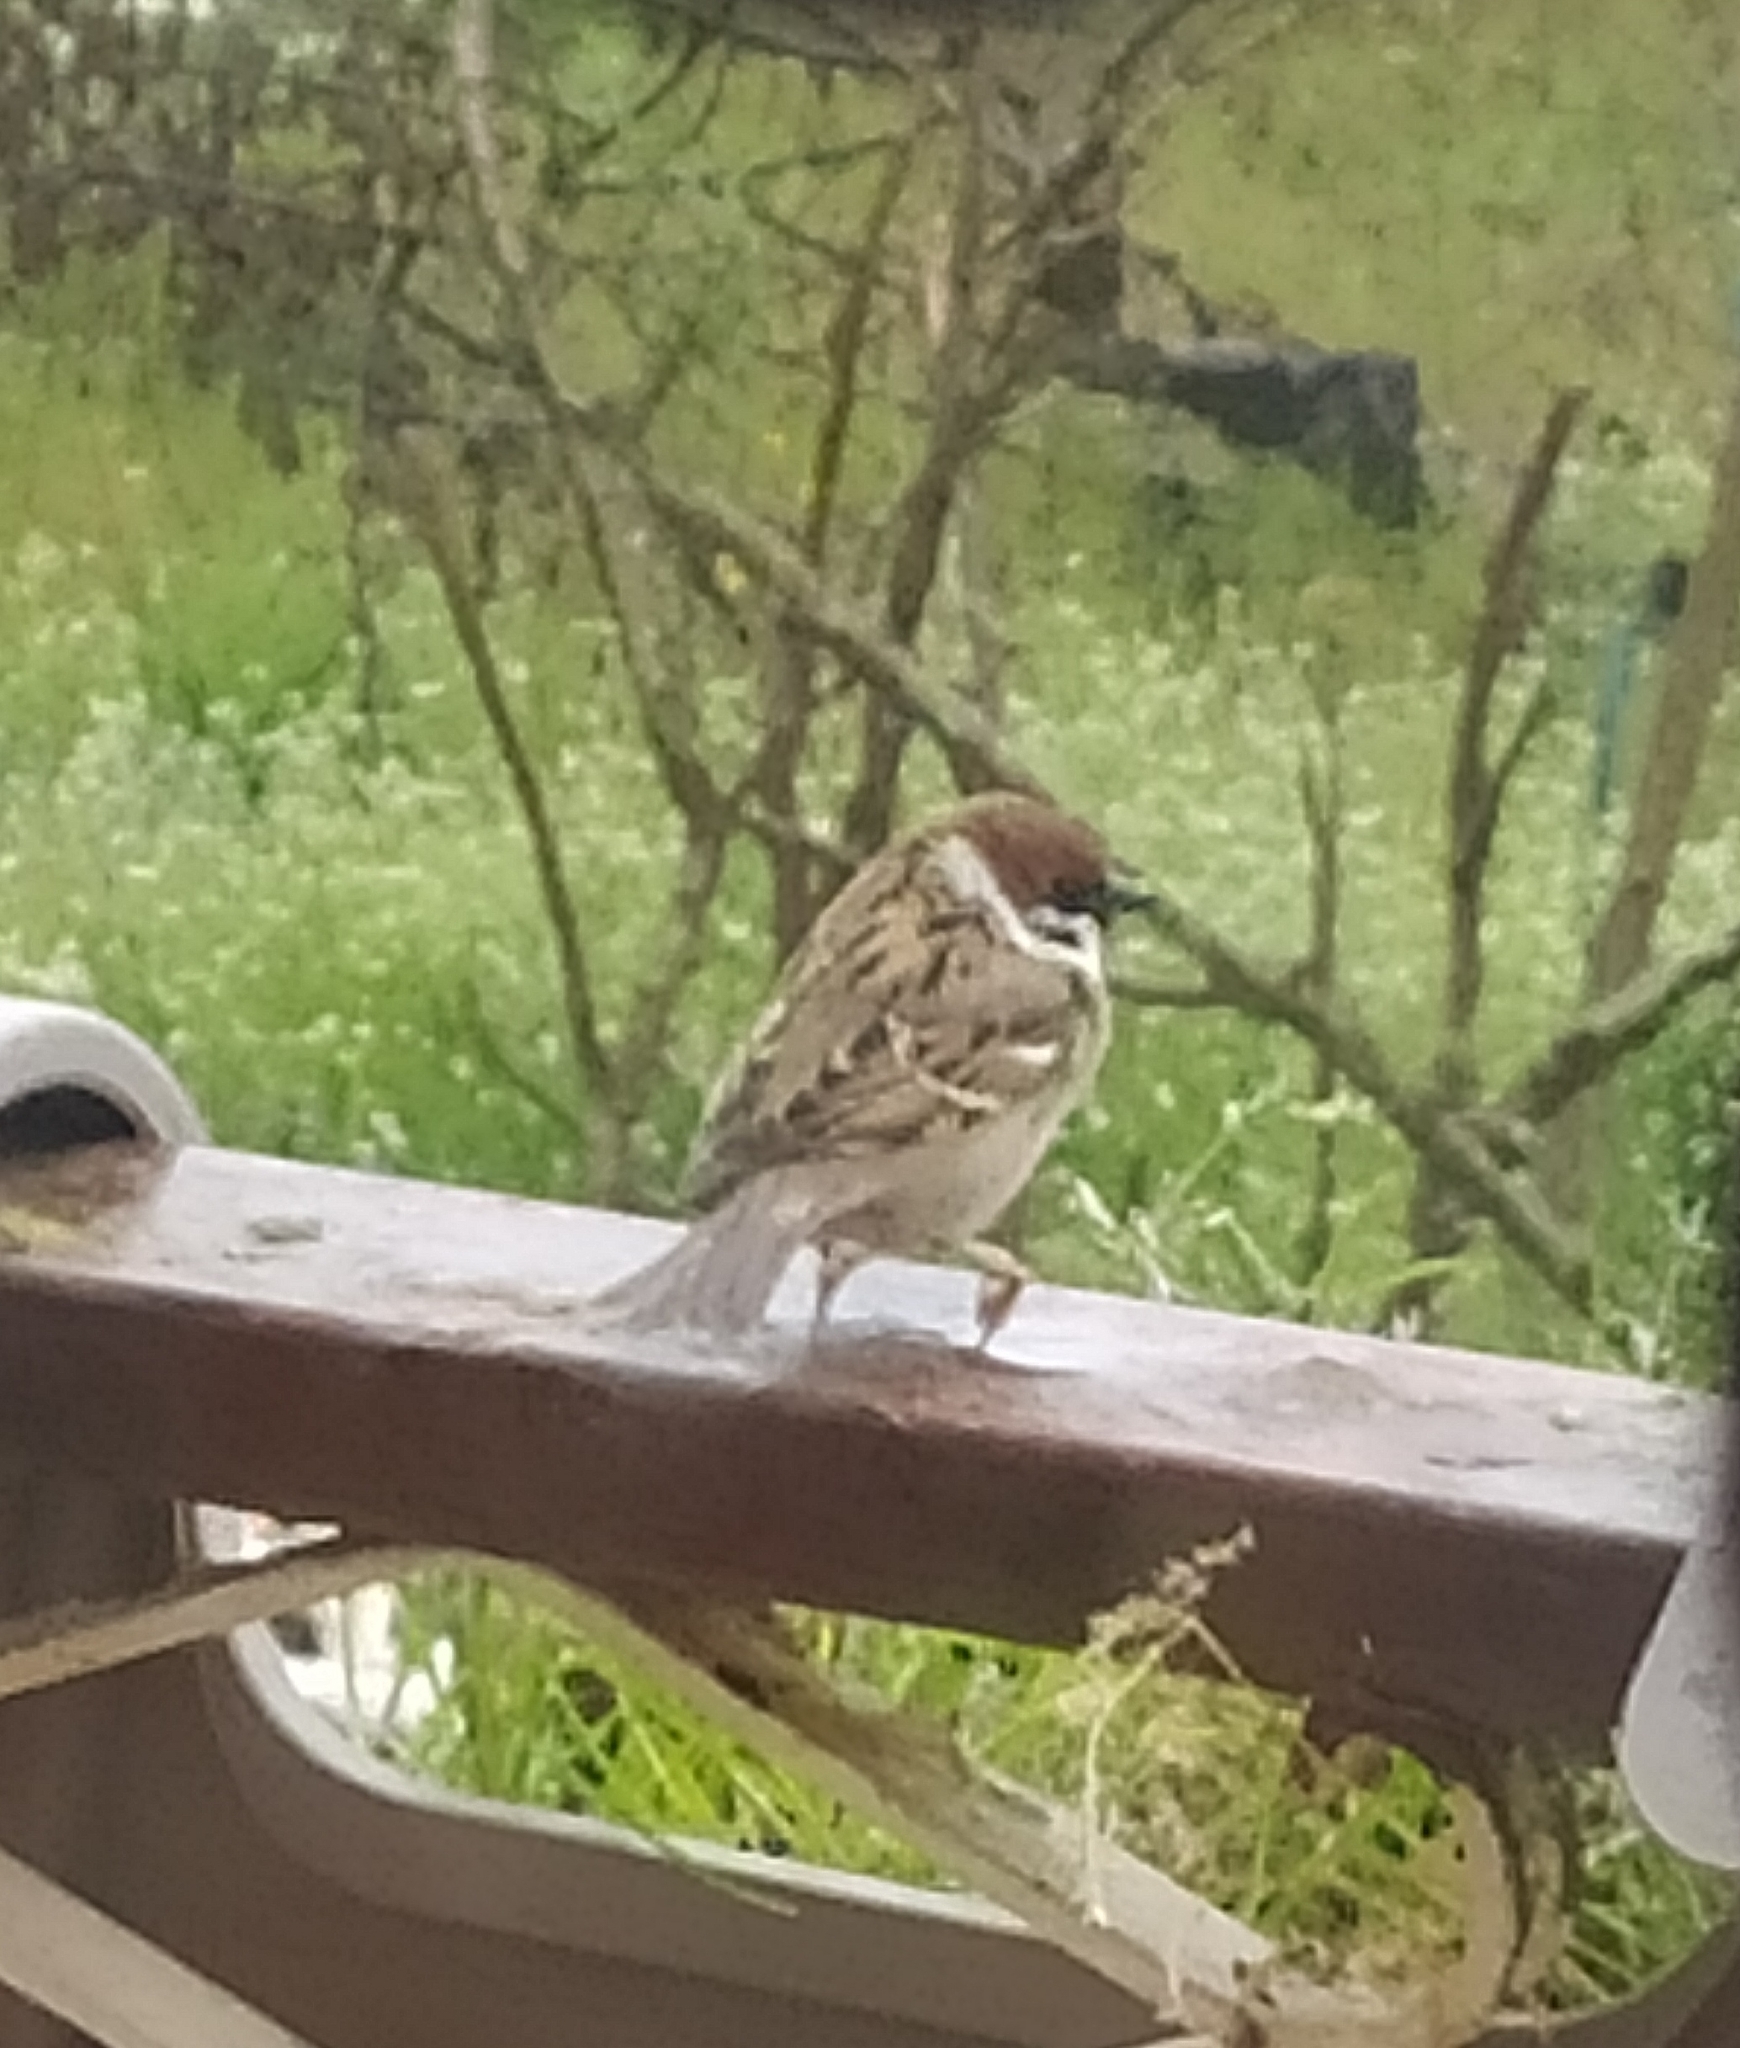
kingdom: Animalia
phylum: Chordata
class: Aves
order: Passeriformes
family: Passeridae
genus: Passer
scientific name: Passer montanus
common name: Eurasian tree sparrow
